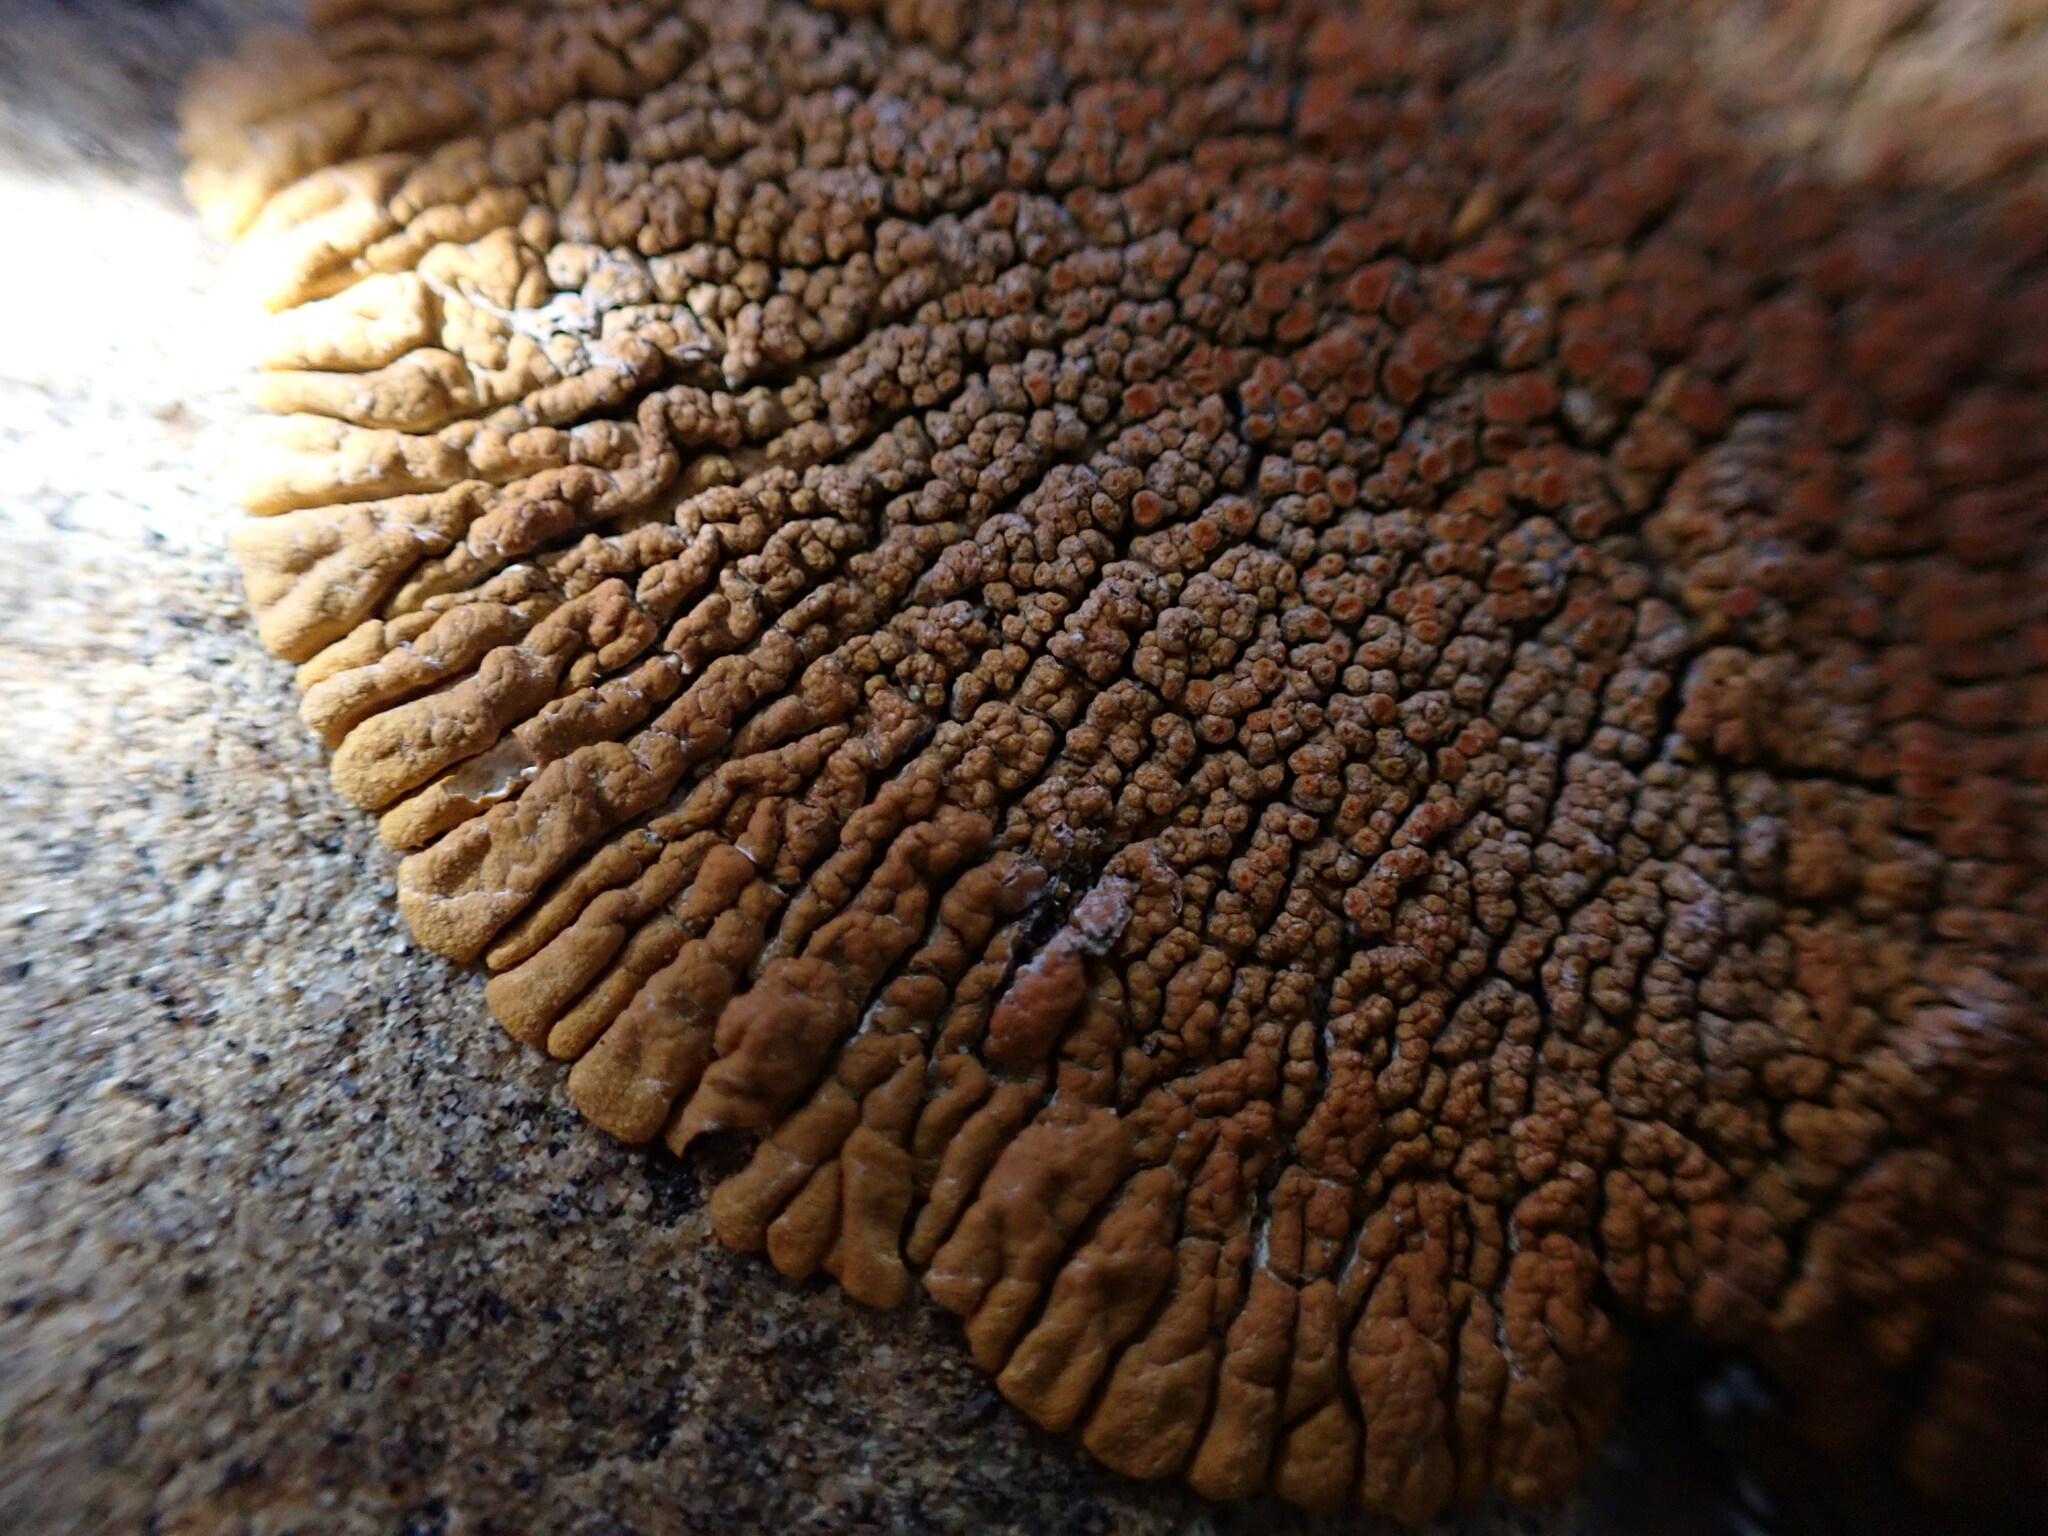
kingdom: Fungi
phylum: Ascomycota
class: Lecanoromycetes
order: Teloschistales
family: Teloschistaceae
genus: Golubkovia
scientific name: Golubkovia trachyphylla
